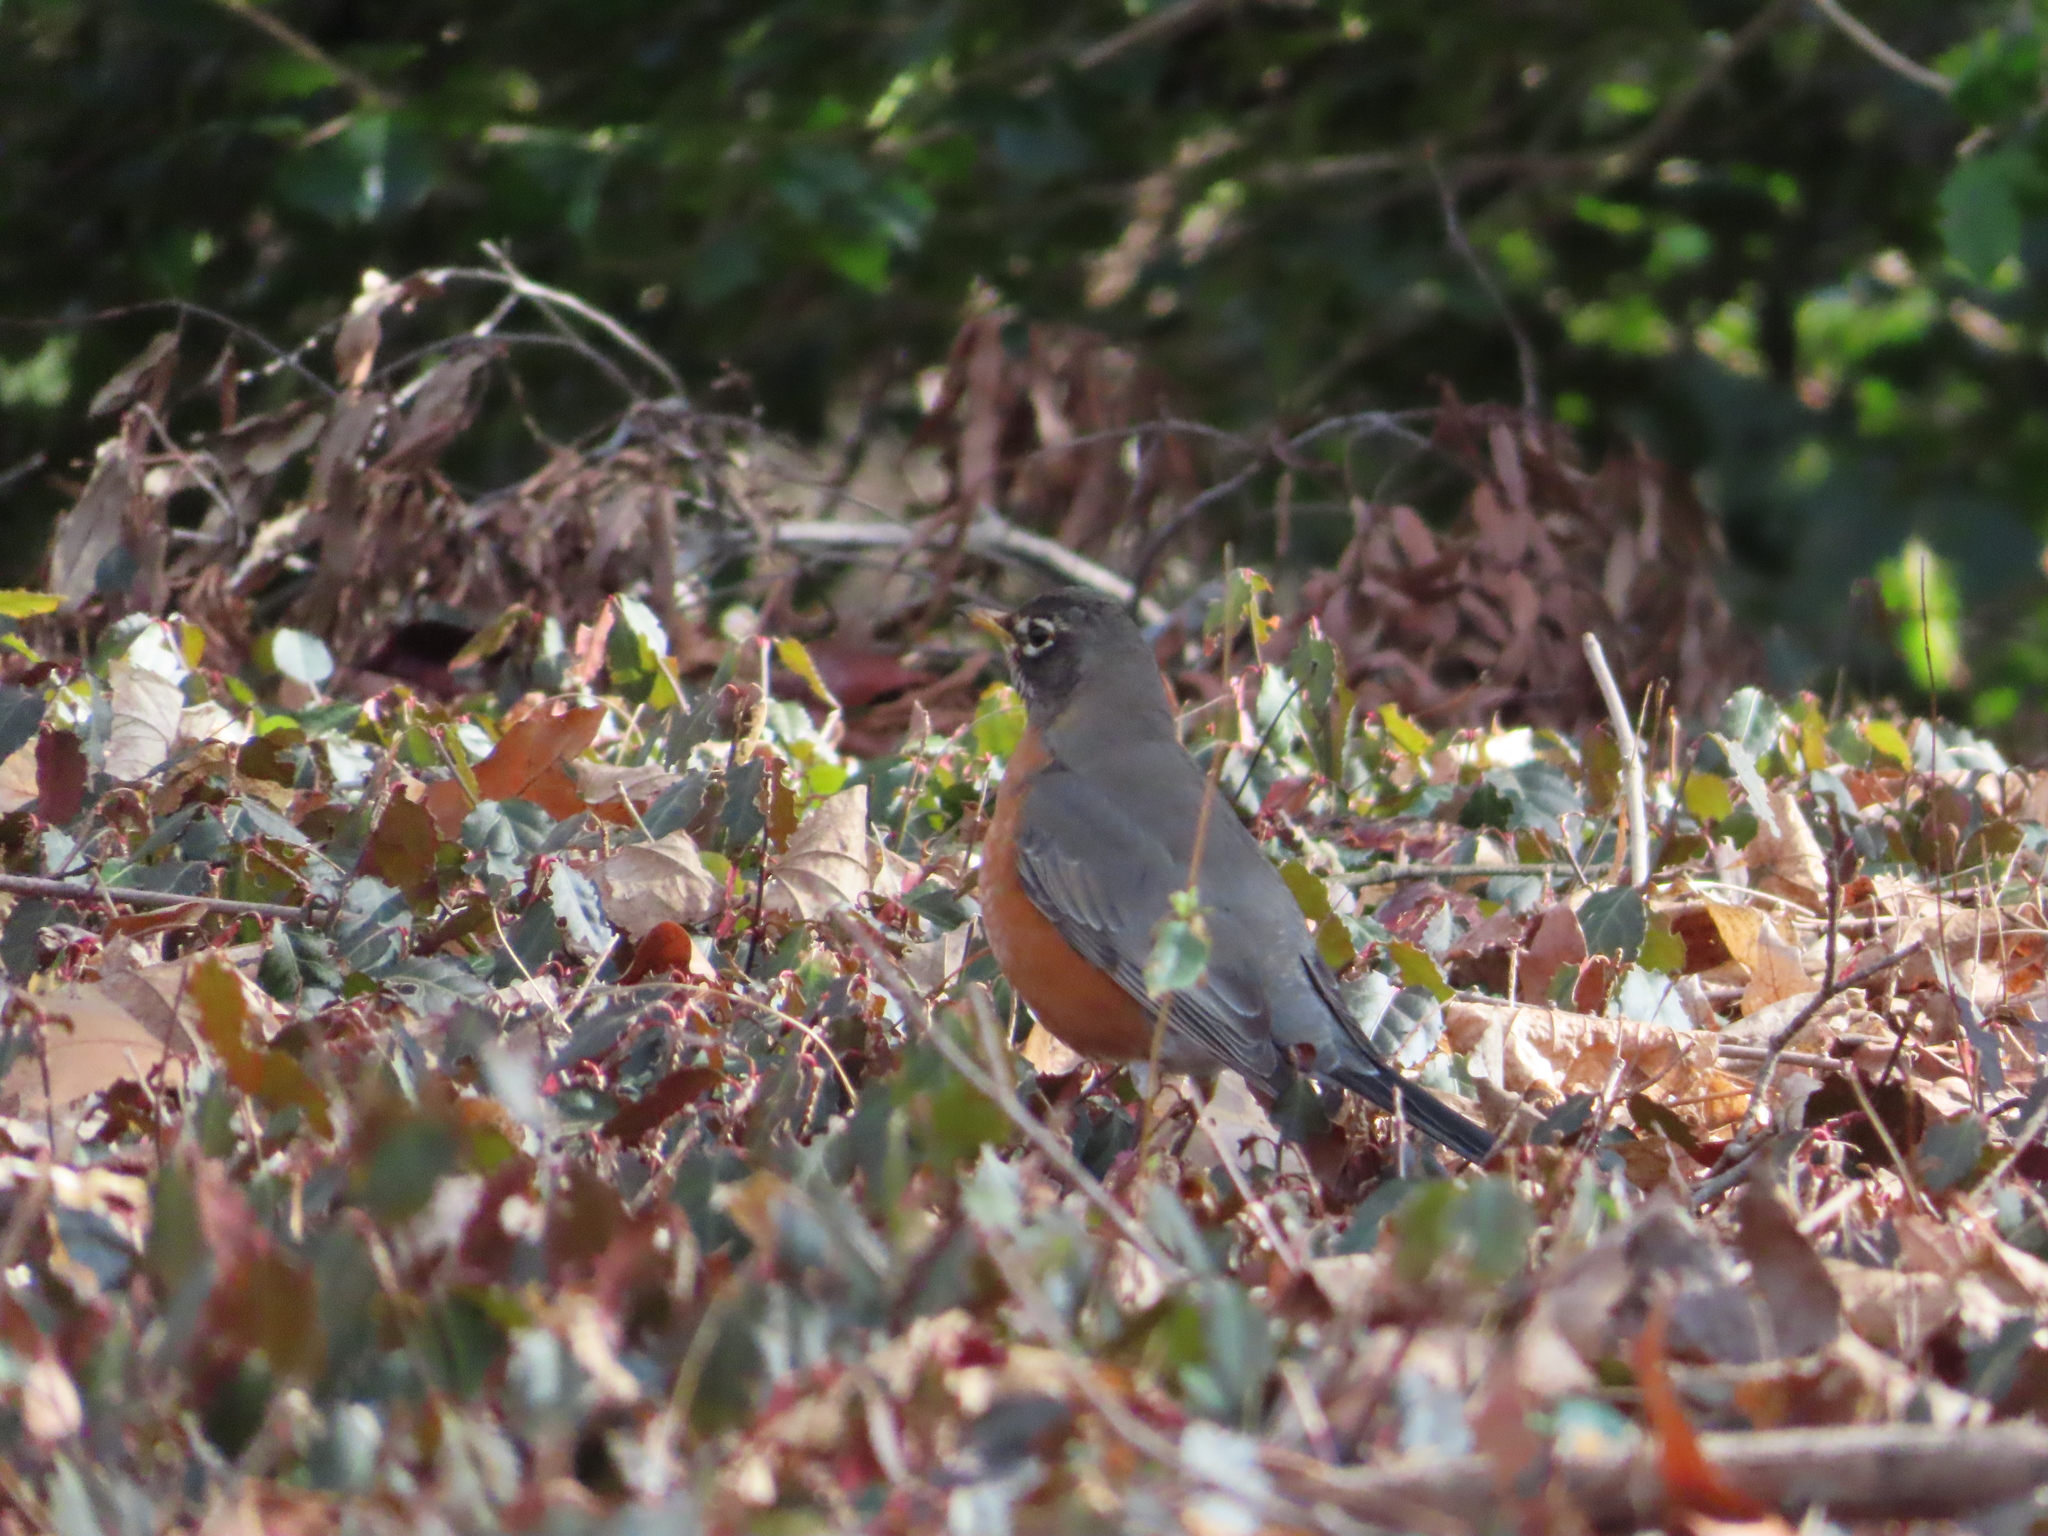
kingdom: Animalia
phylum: Chordata
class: Aves
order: Passeriformes
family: Turdidae
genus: Turdus
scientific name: Turdus migratorius
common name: American robin
